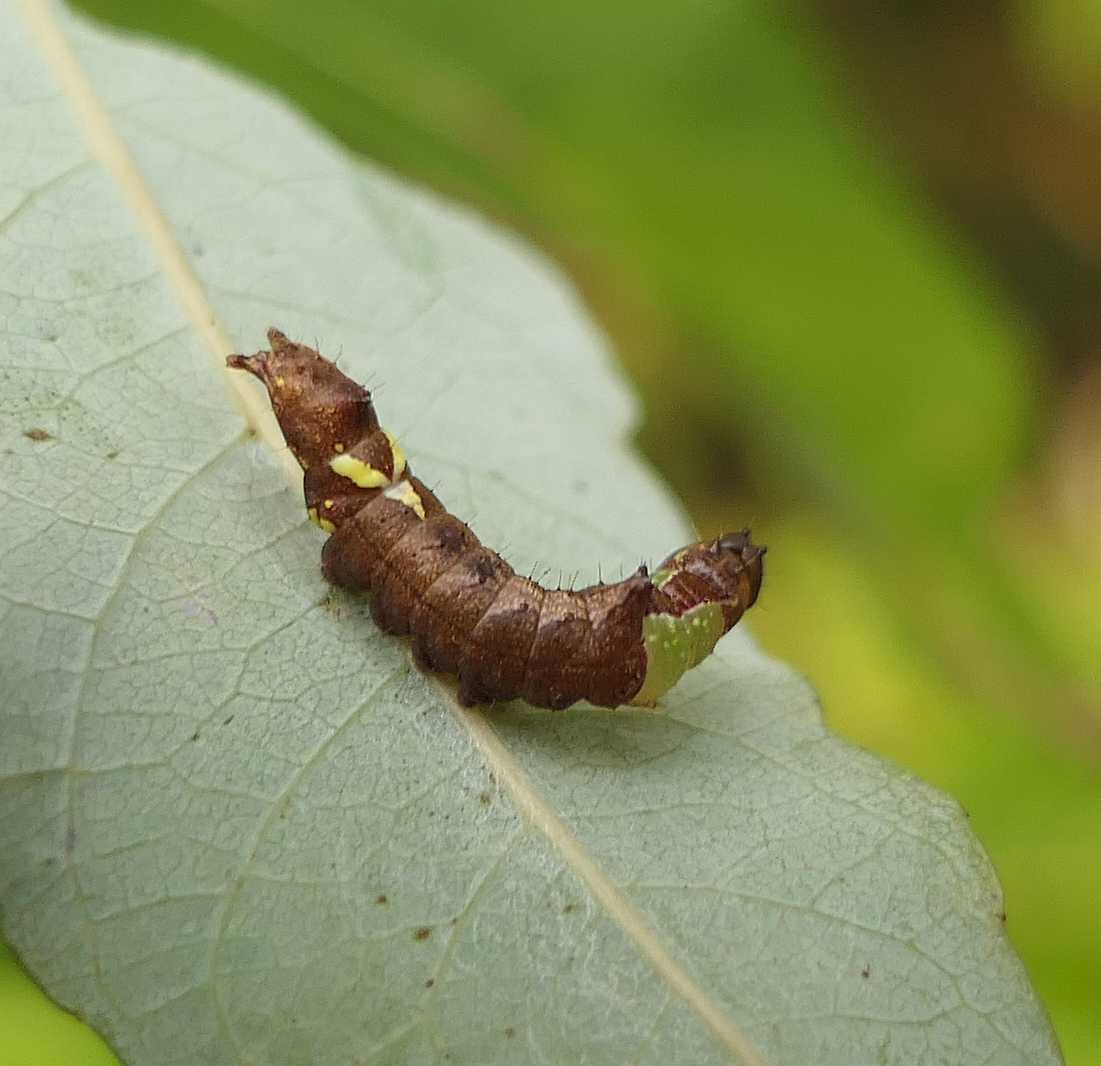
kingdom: Animalia
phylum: Arthropoda
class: Insecta
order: Lepidoptera
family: Notodontidae
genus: Schizura
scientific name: Schizura
